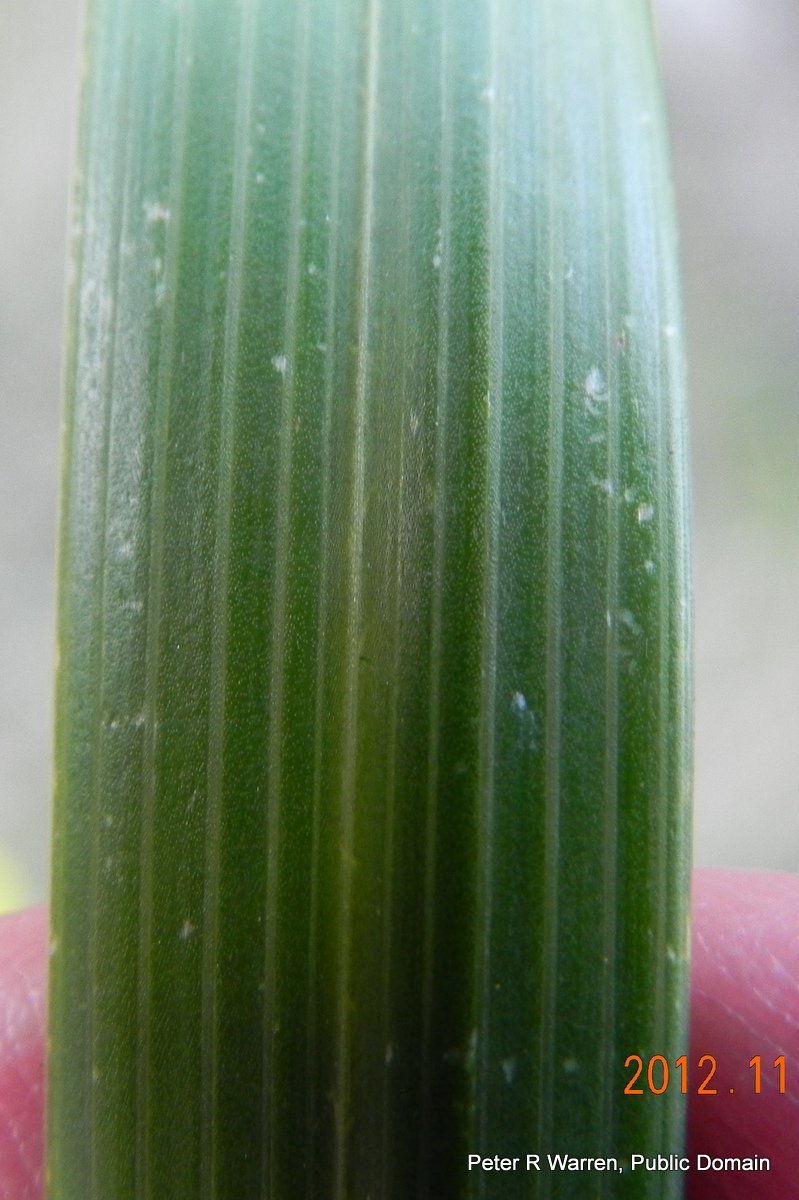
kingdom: Plantae
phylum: Tracheophyta
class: Liliopsida
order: Asparagales
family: Iridaceae
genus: Moraea
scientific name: Moraea huttonii
